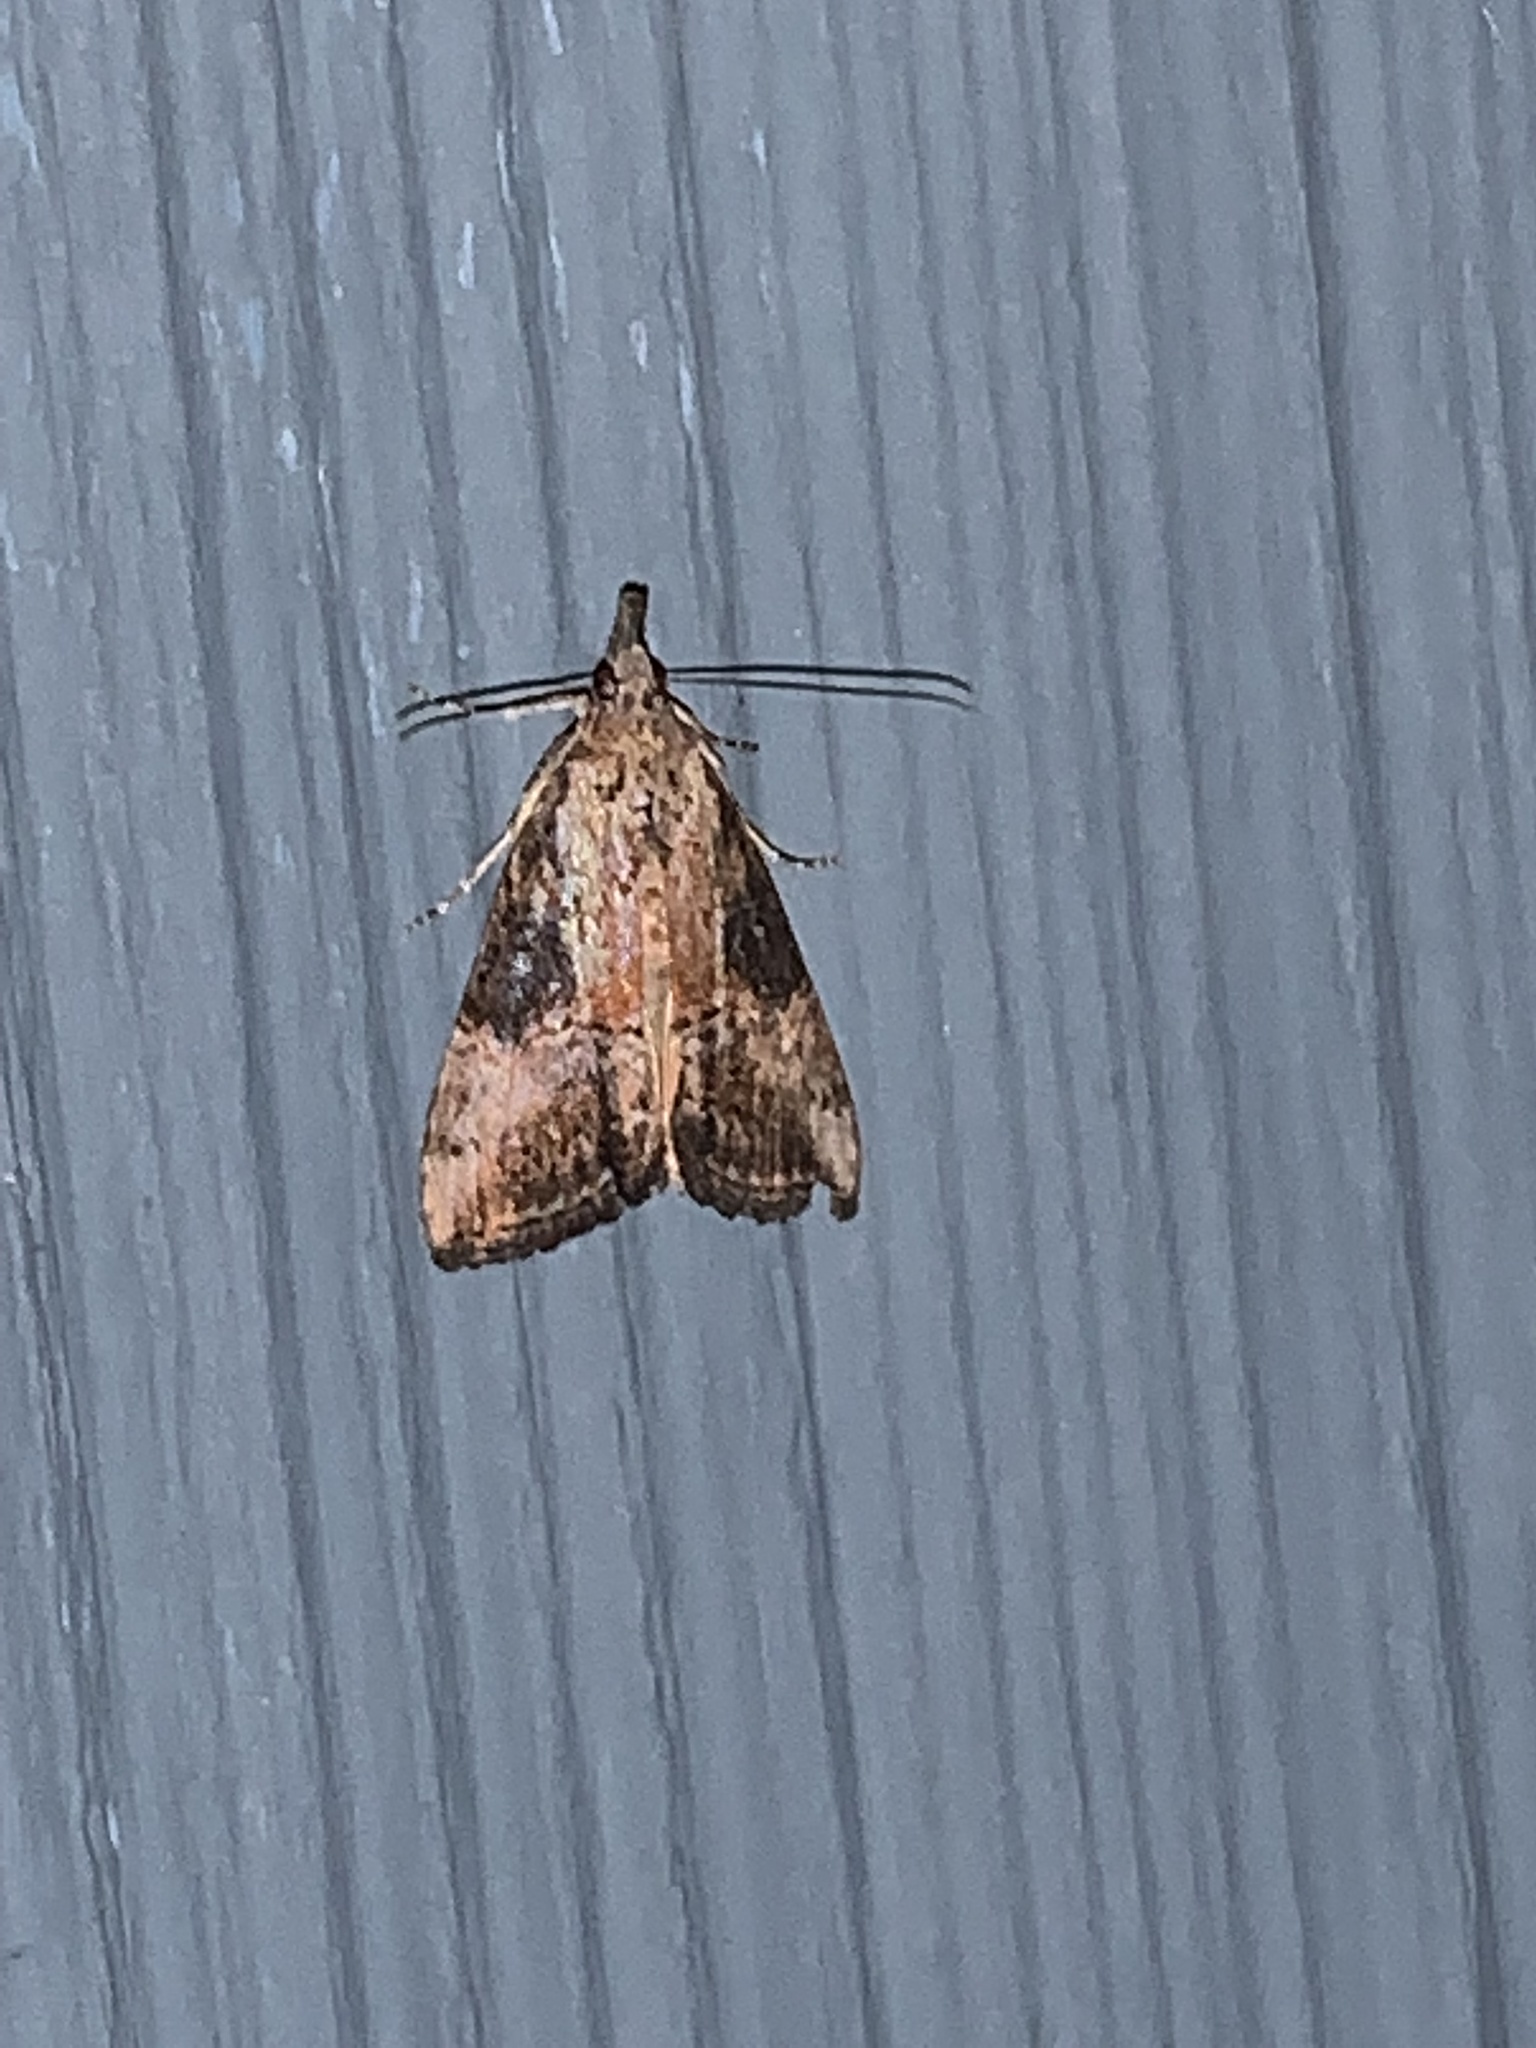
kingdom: Animalia
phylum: Arthropoda
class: Insecta
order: Lepidoptera
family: Erebidae
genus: Hypena
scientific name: Hypena scabra
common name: Green cloverworm
